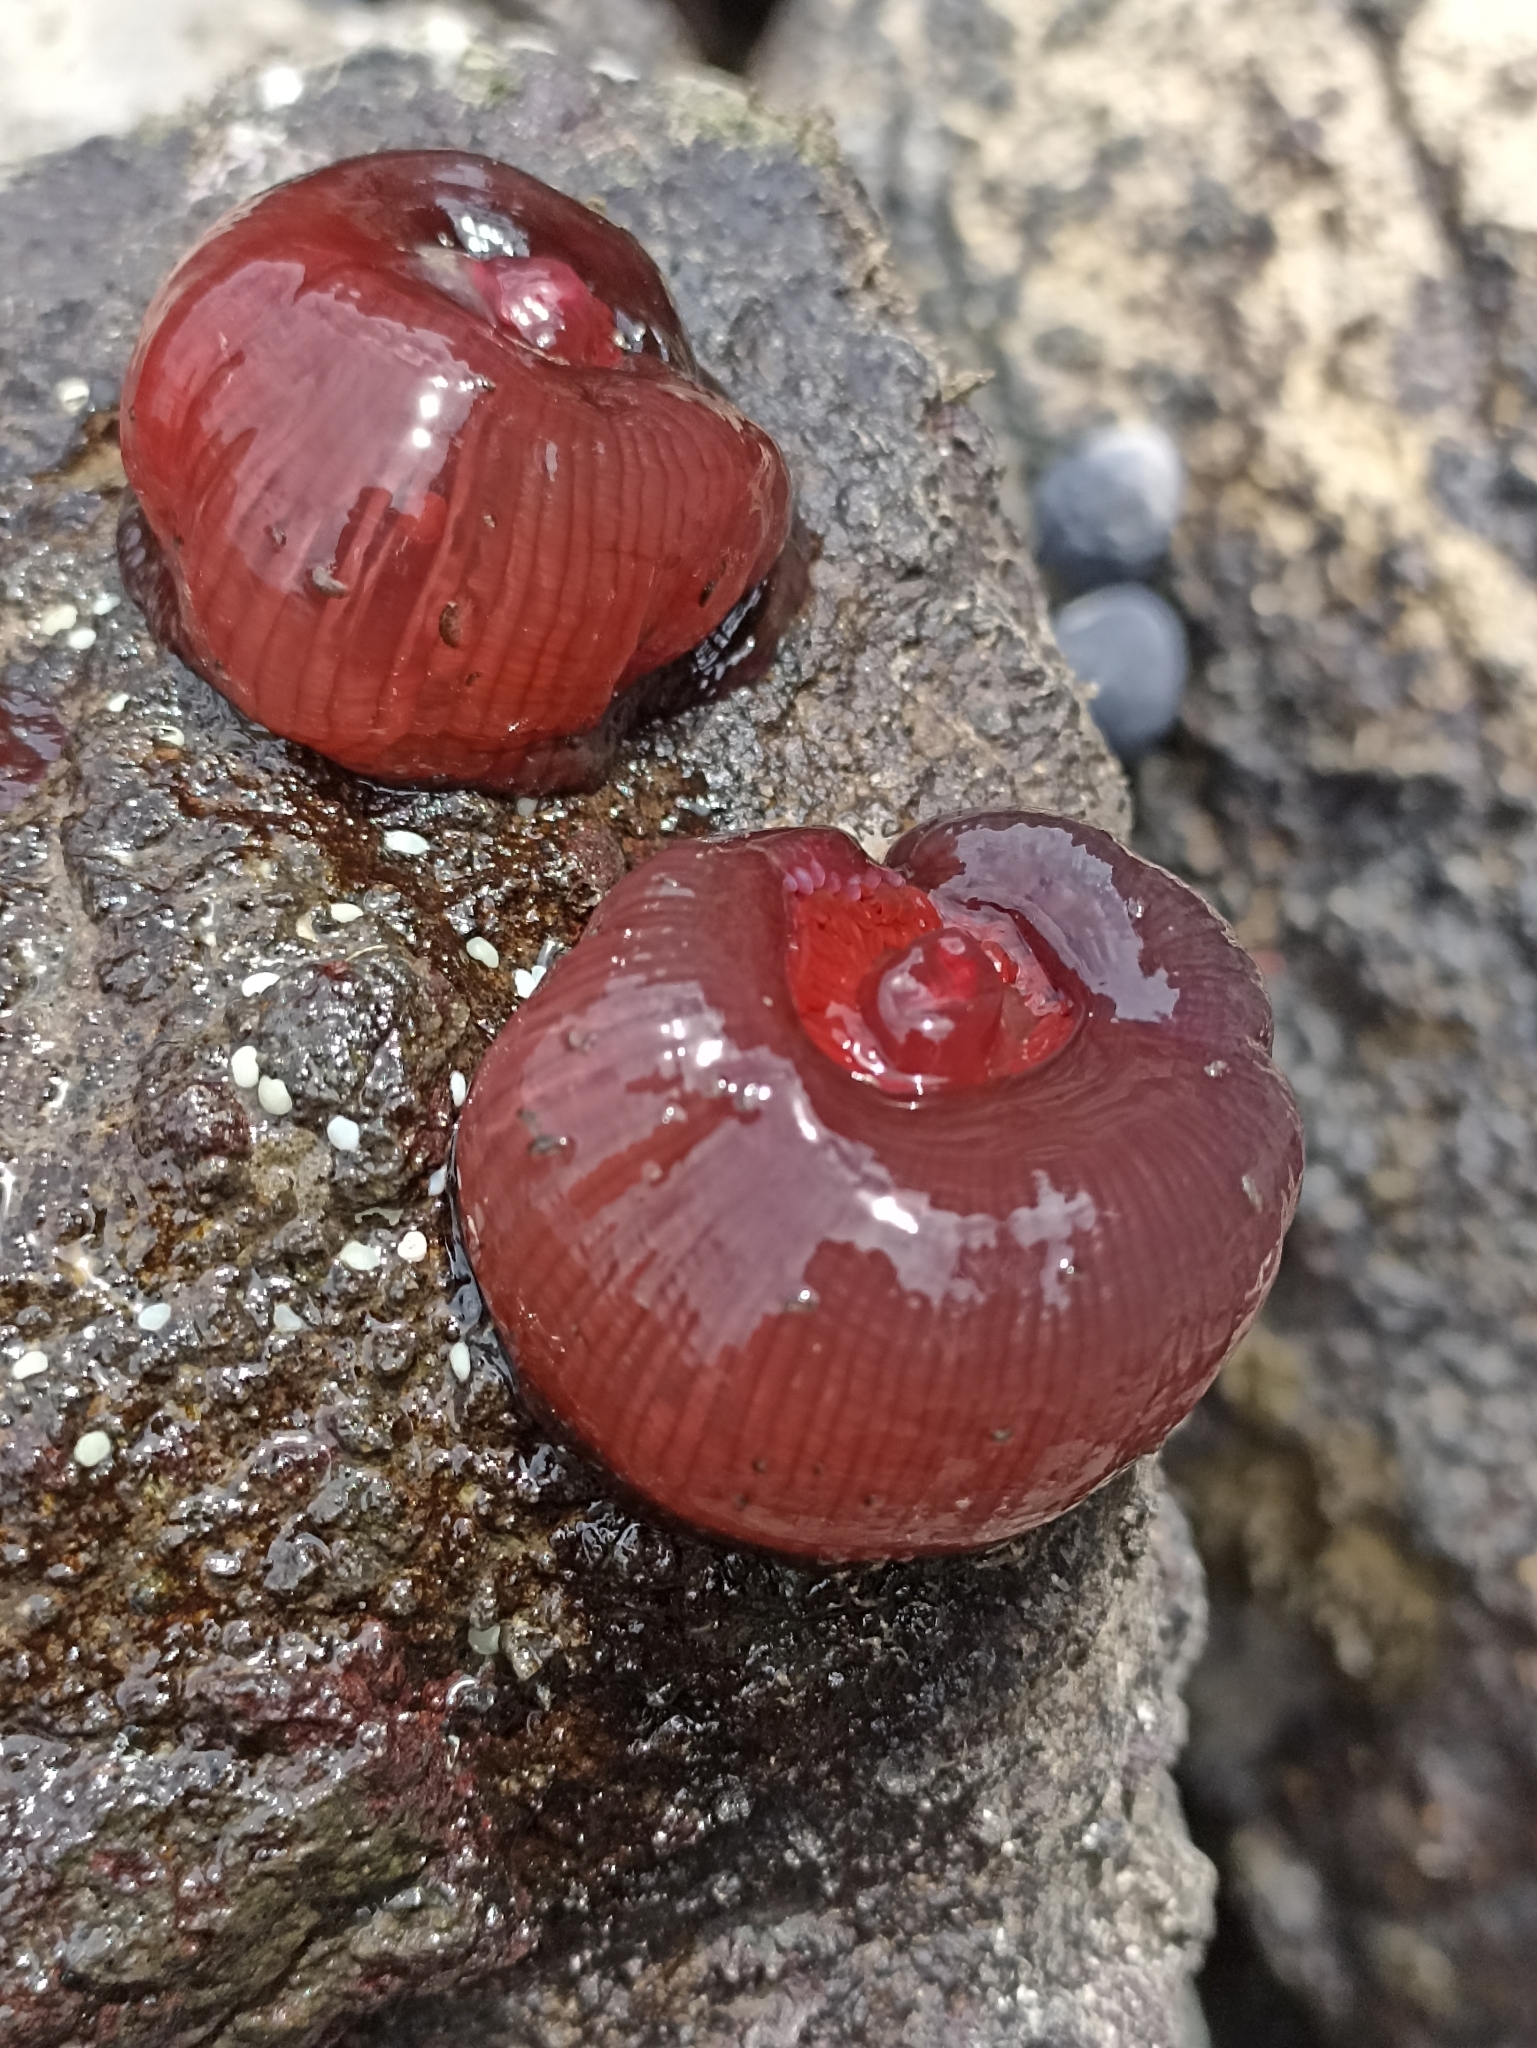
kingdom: Animalia
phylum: Cnidaria
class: Anthozoa
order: Actiniaria
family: Actiniidae
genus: Actinia
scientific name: Actinia tenebrosa
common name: Waratah anemone
